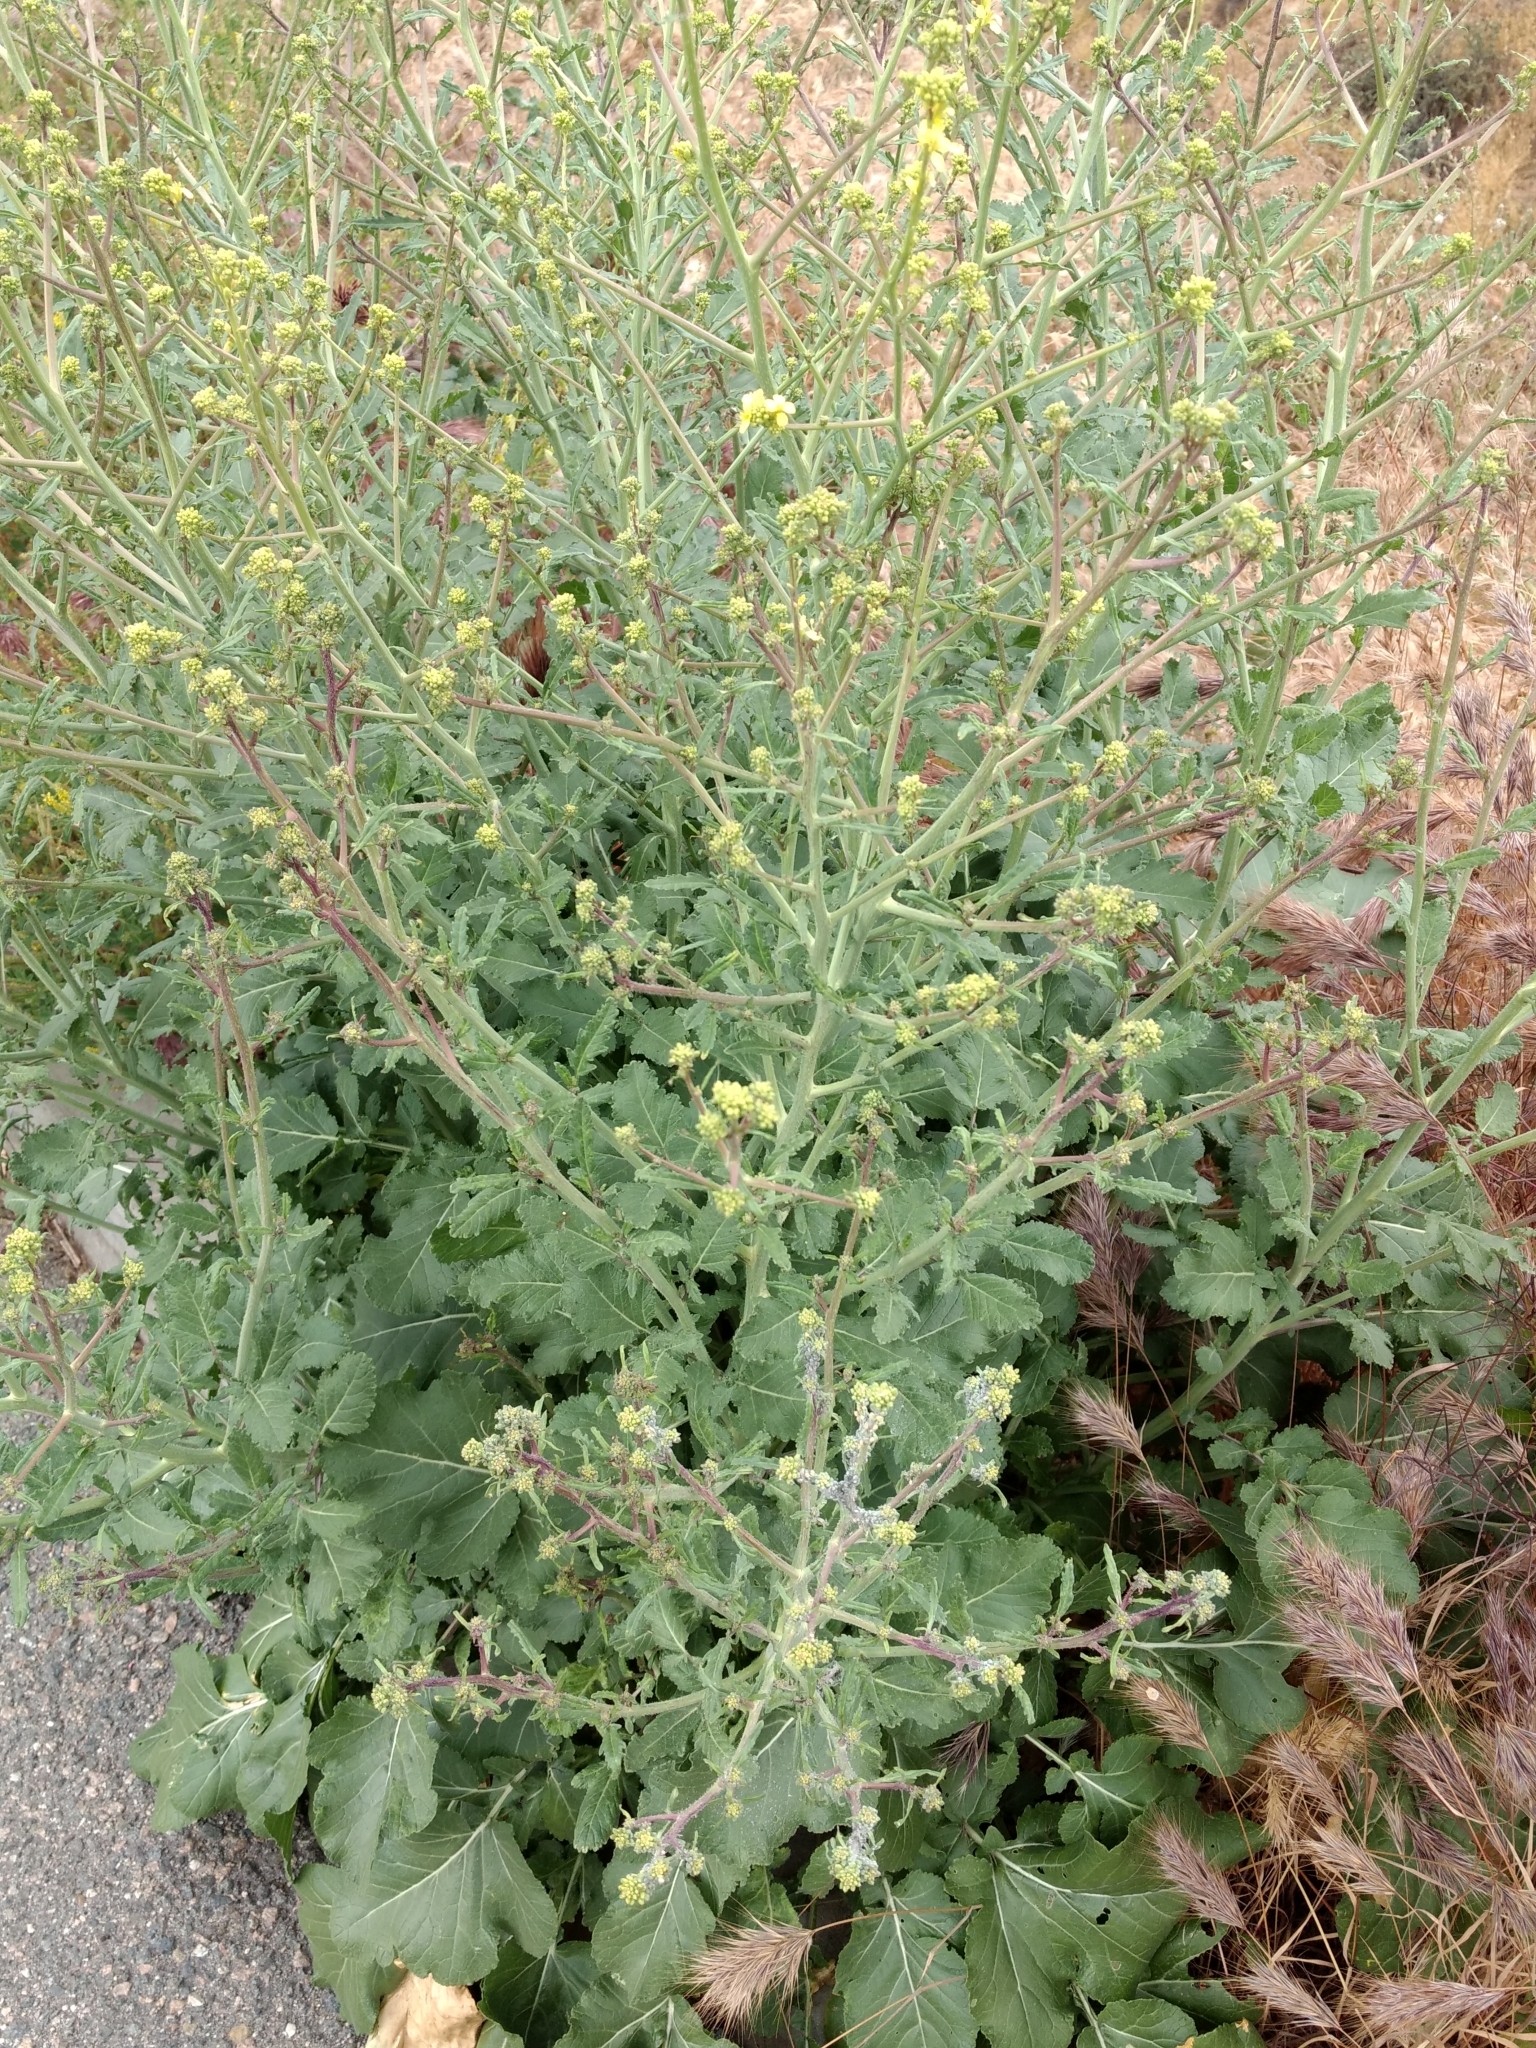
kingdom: Animalia
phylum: Arthropoda
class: Insecta
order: Hemiptera
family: Aphididae
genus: Brevicoryne
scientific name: Brevicoryne brassicae
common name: Cabbage aphid
